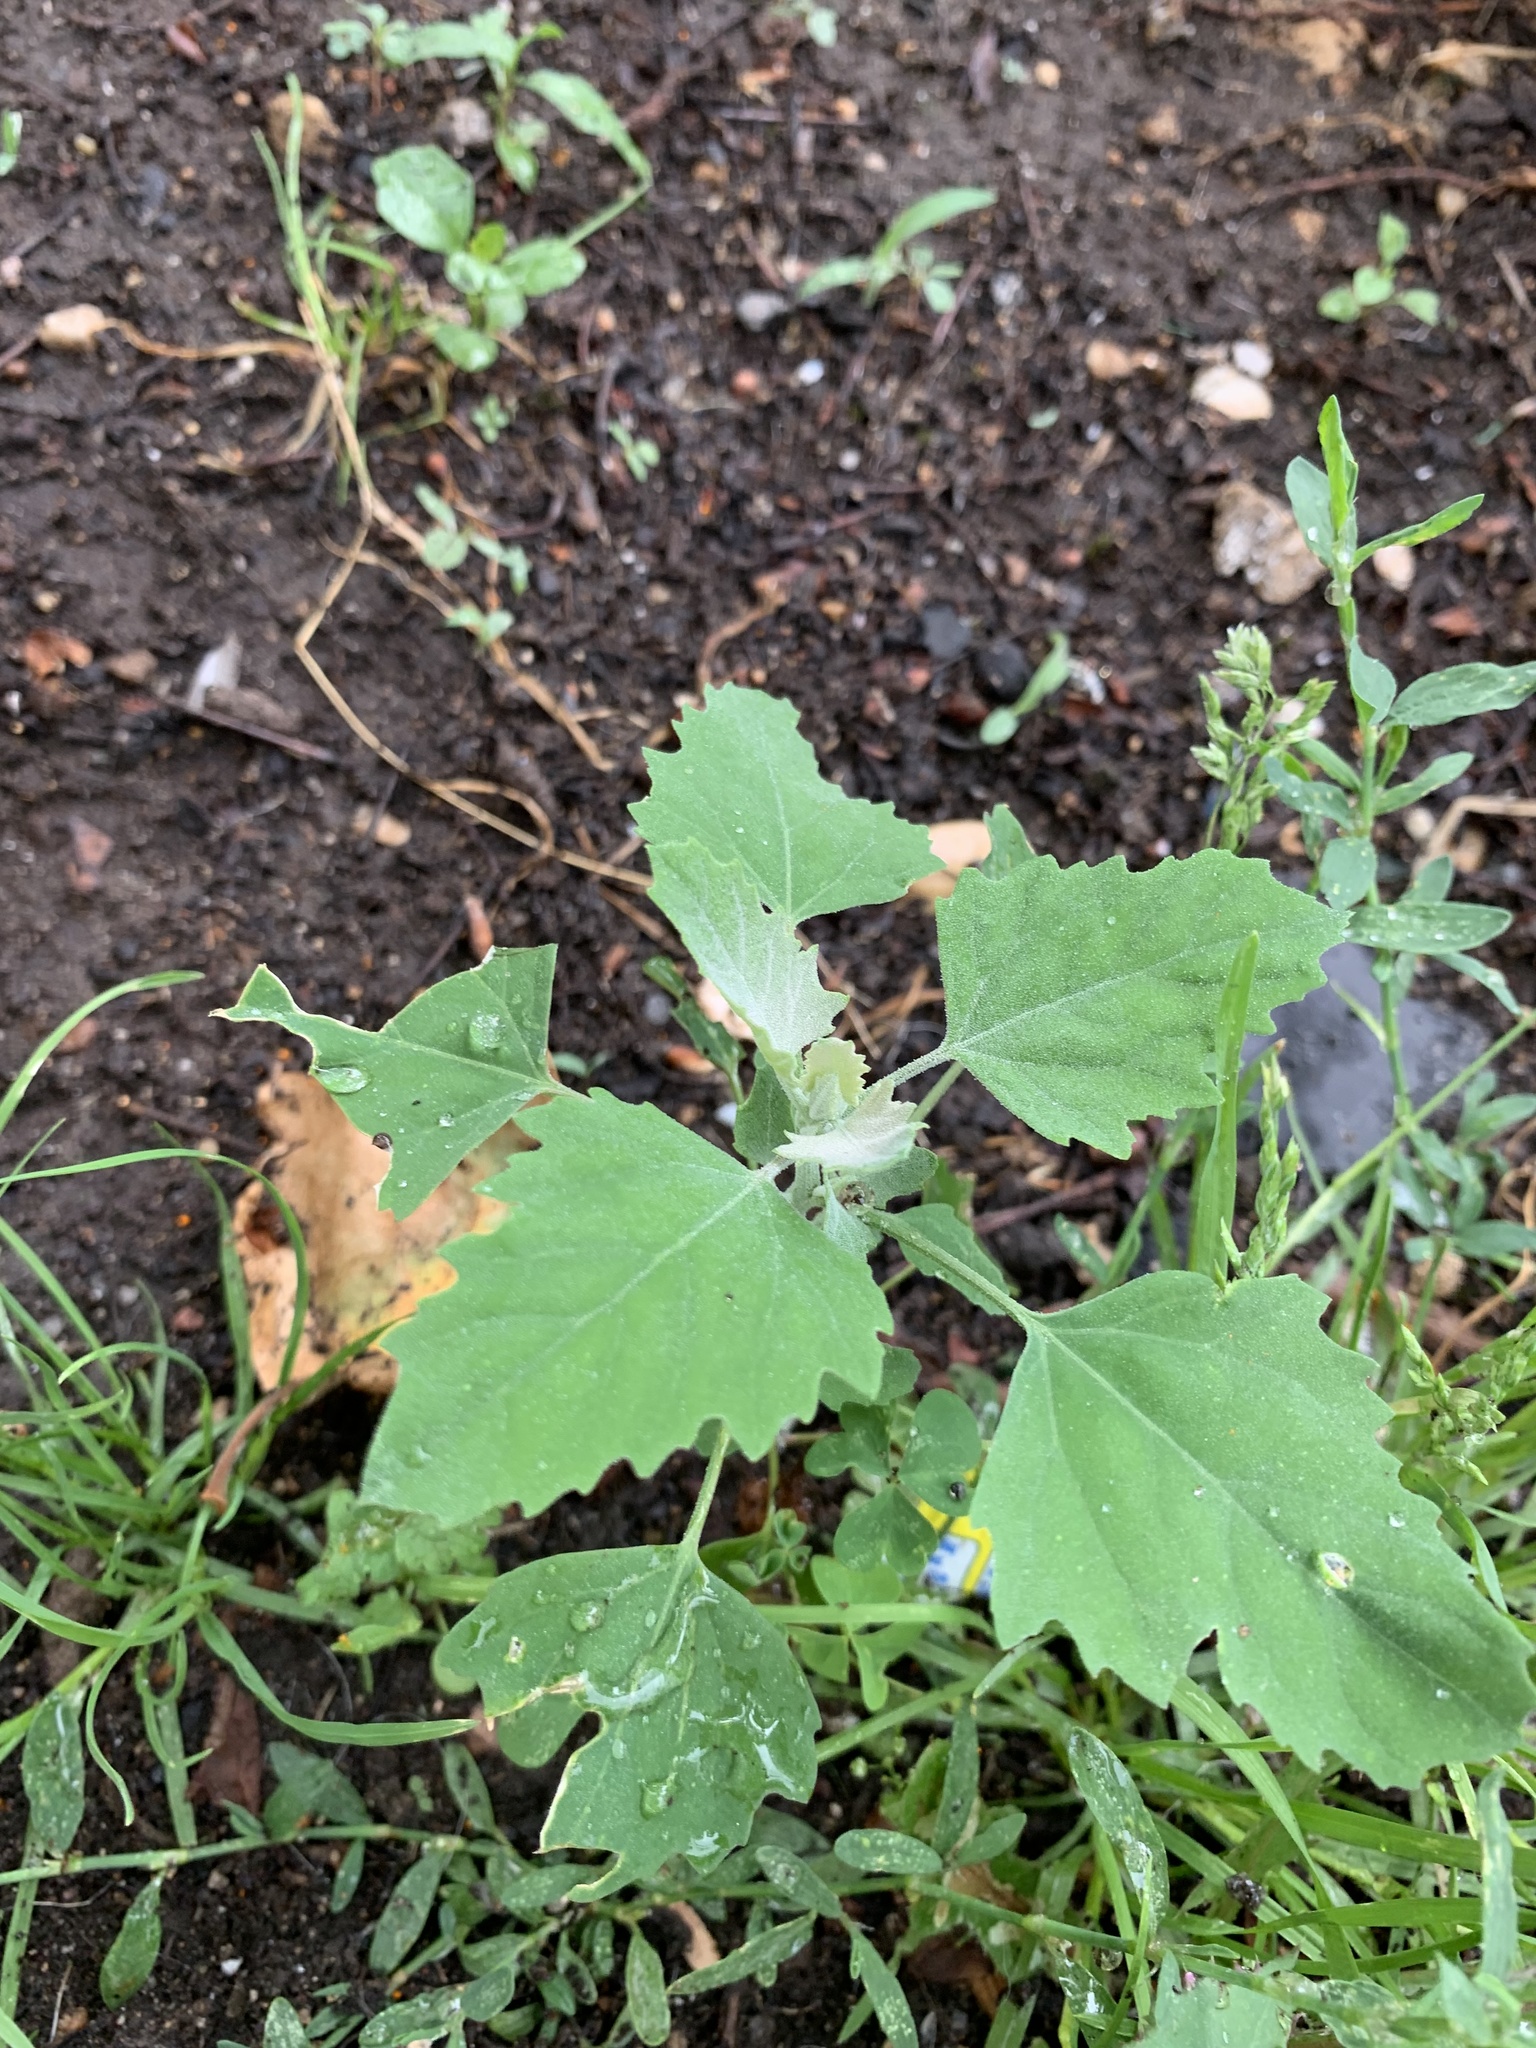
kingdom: Plantae
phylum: Tracheophyta
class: Magnoliopsida
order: Caryophyllales
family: Amaranthaceae
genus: Chenopodium
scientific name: Chenopodium album
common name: Fat-hen
